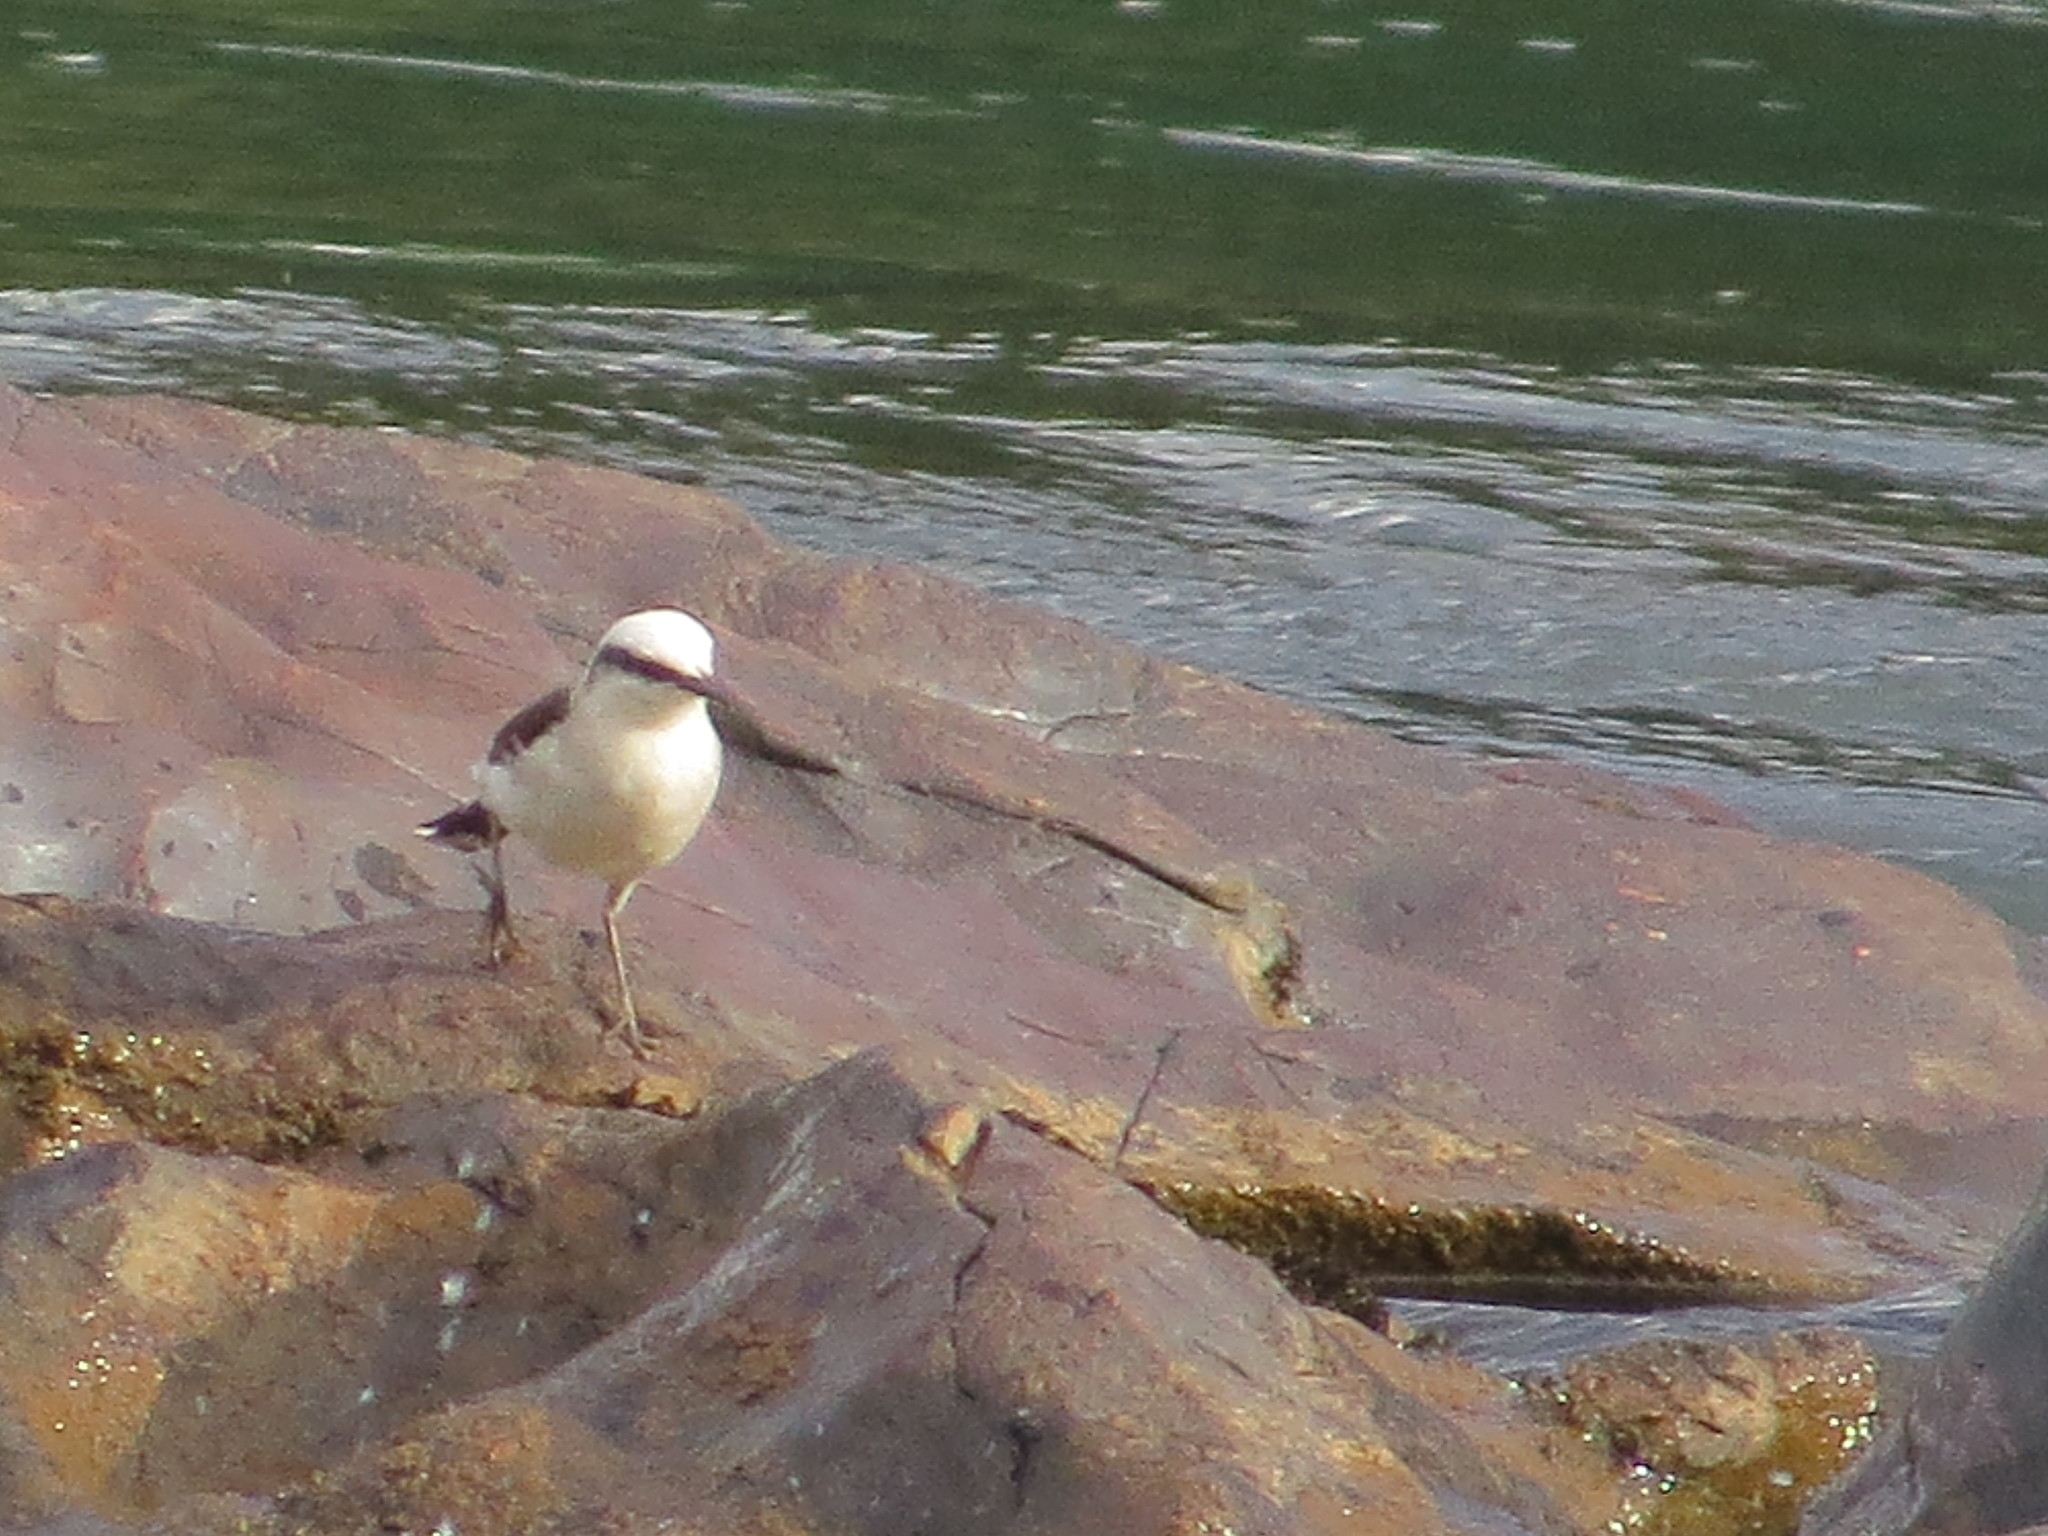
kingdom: Animalia
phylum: Chordata
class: Aves
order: Passeriformes
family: Tyrannidae
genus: Fluvicola
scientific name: Fluvicola nengeta
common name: Masked water tyrant
